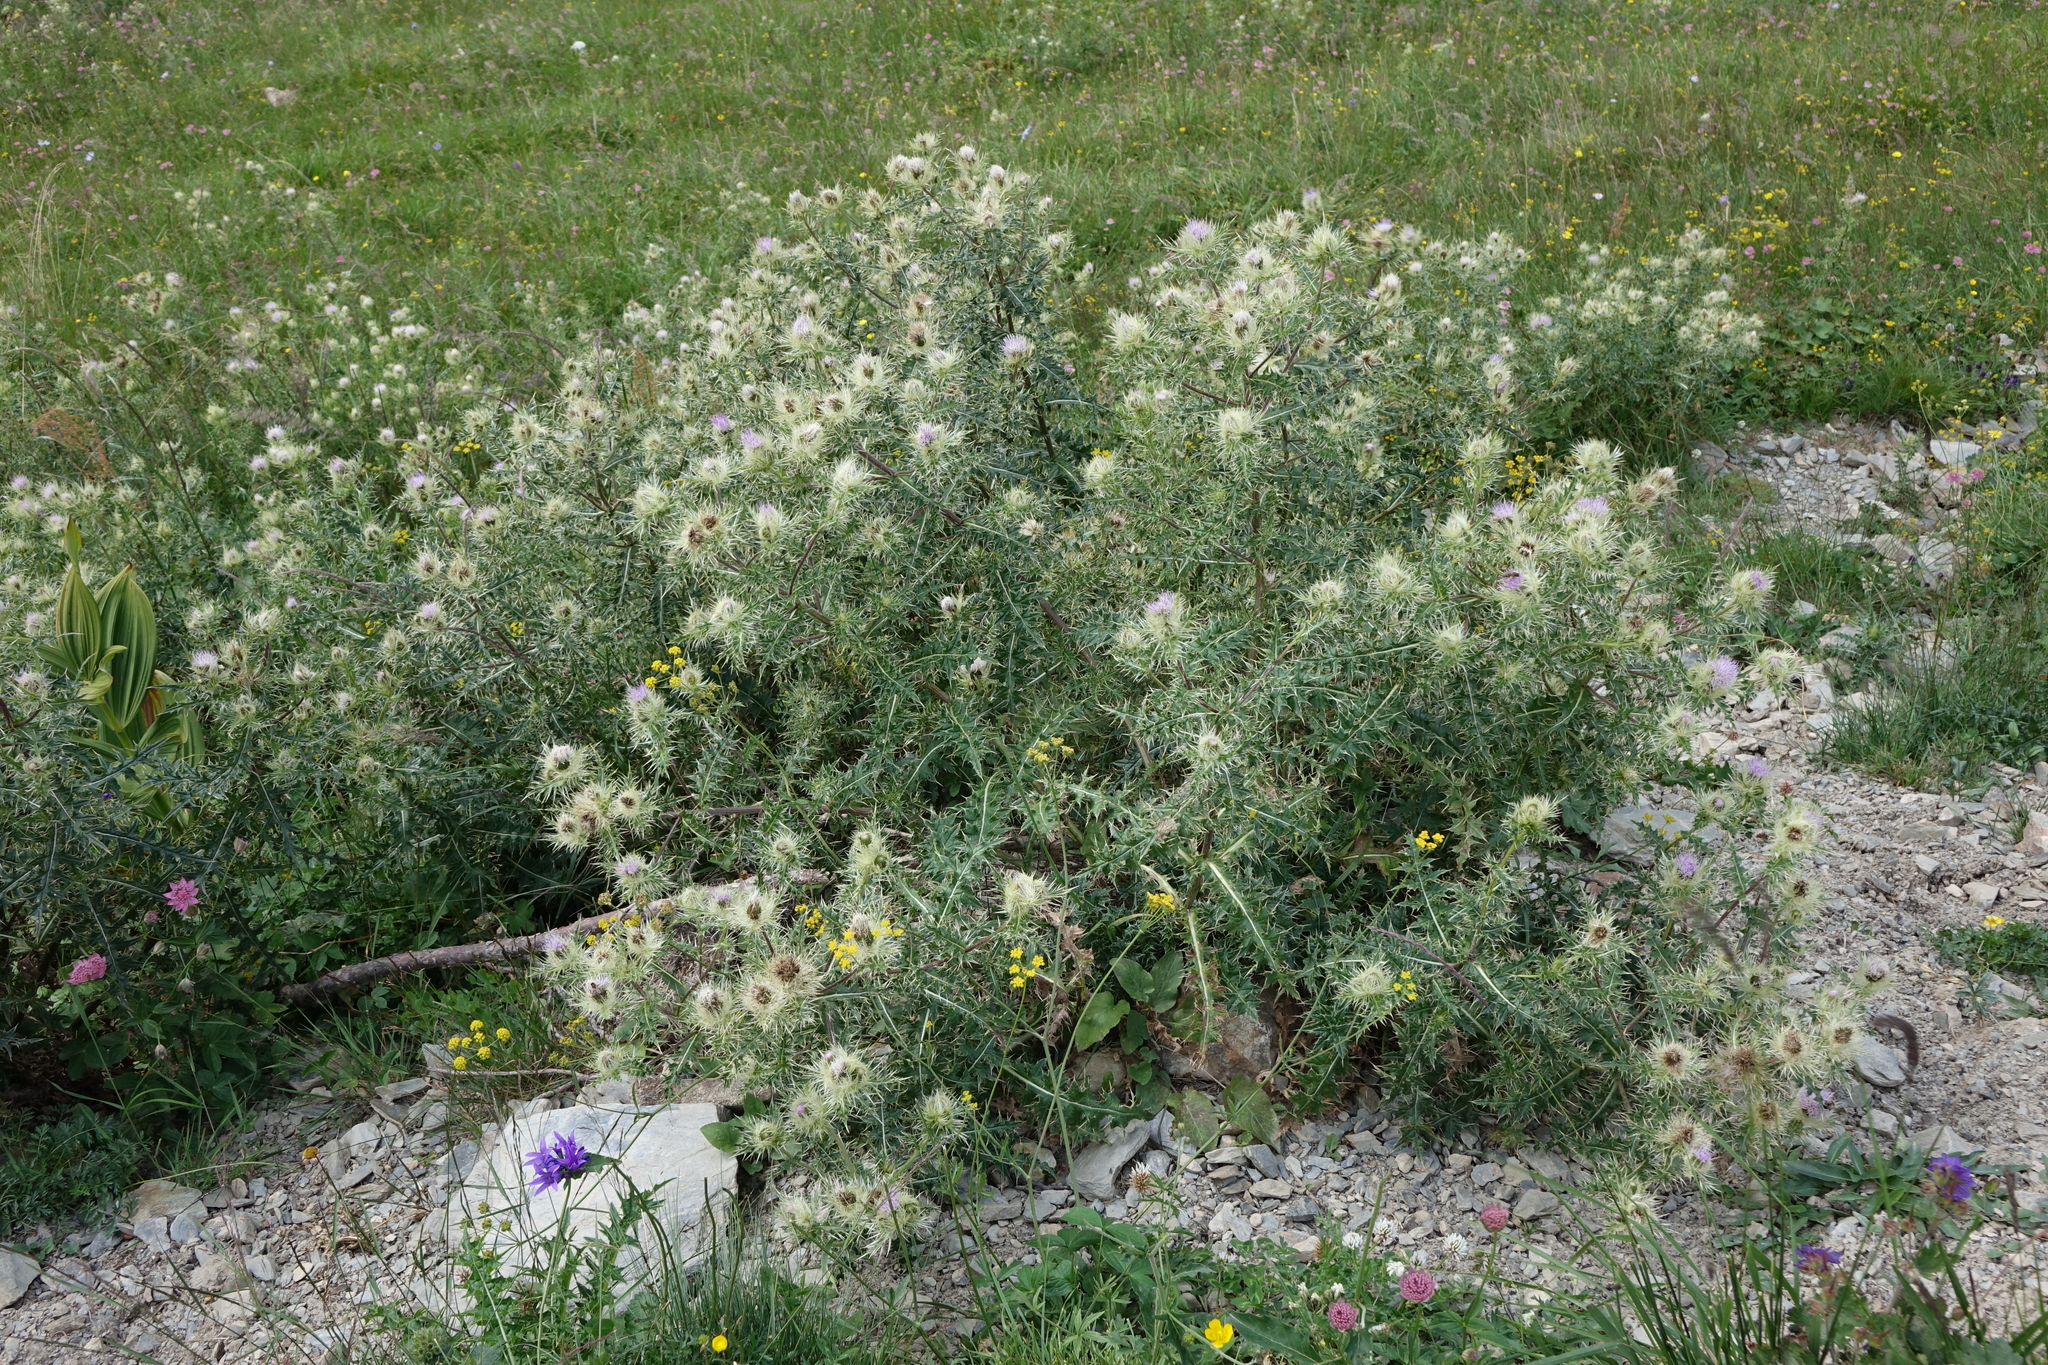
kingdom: Plantae
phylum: Tracheophyta
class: Magnoliopsida
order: Asterales
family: Asteraceae
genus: Cirsium
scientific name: Cirsium obvallatum
